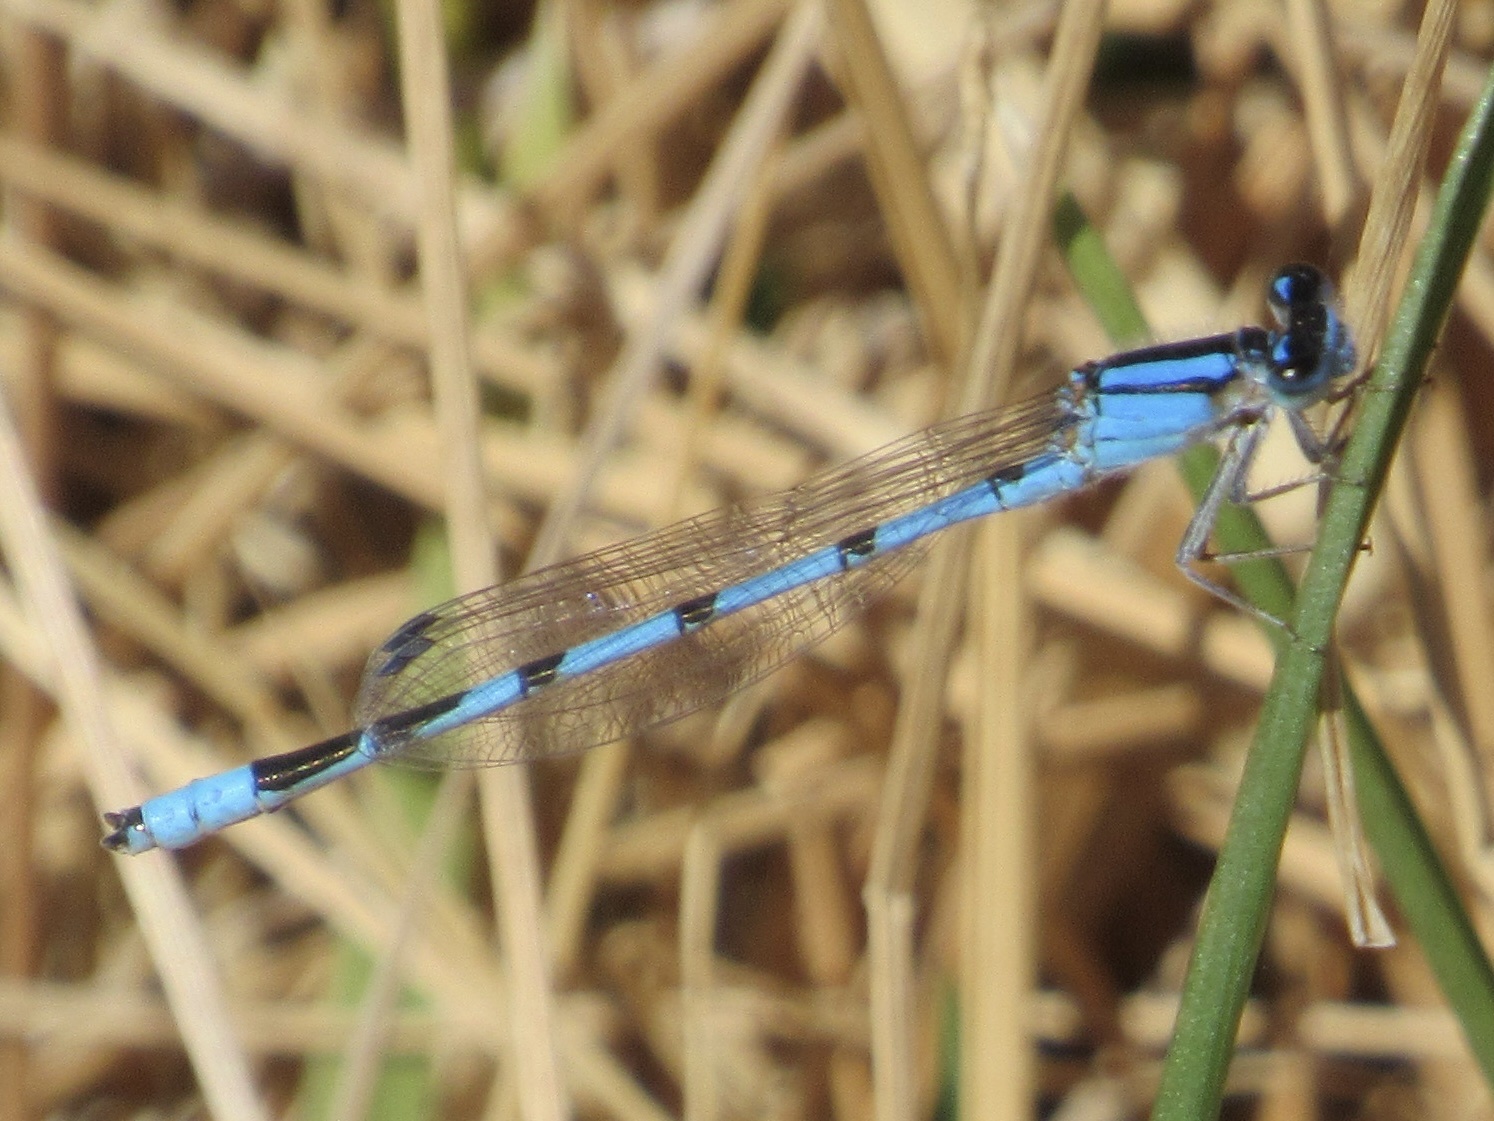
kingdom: Animalia
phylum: Arthropoda
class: Insecta
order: Odonata
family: Coenagrionidae
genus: Enallagma
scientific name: Enallagma civile
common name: Damselfly
